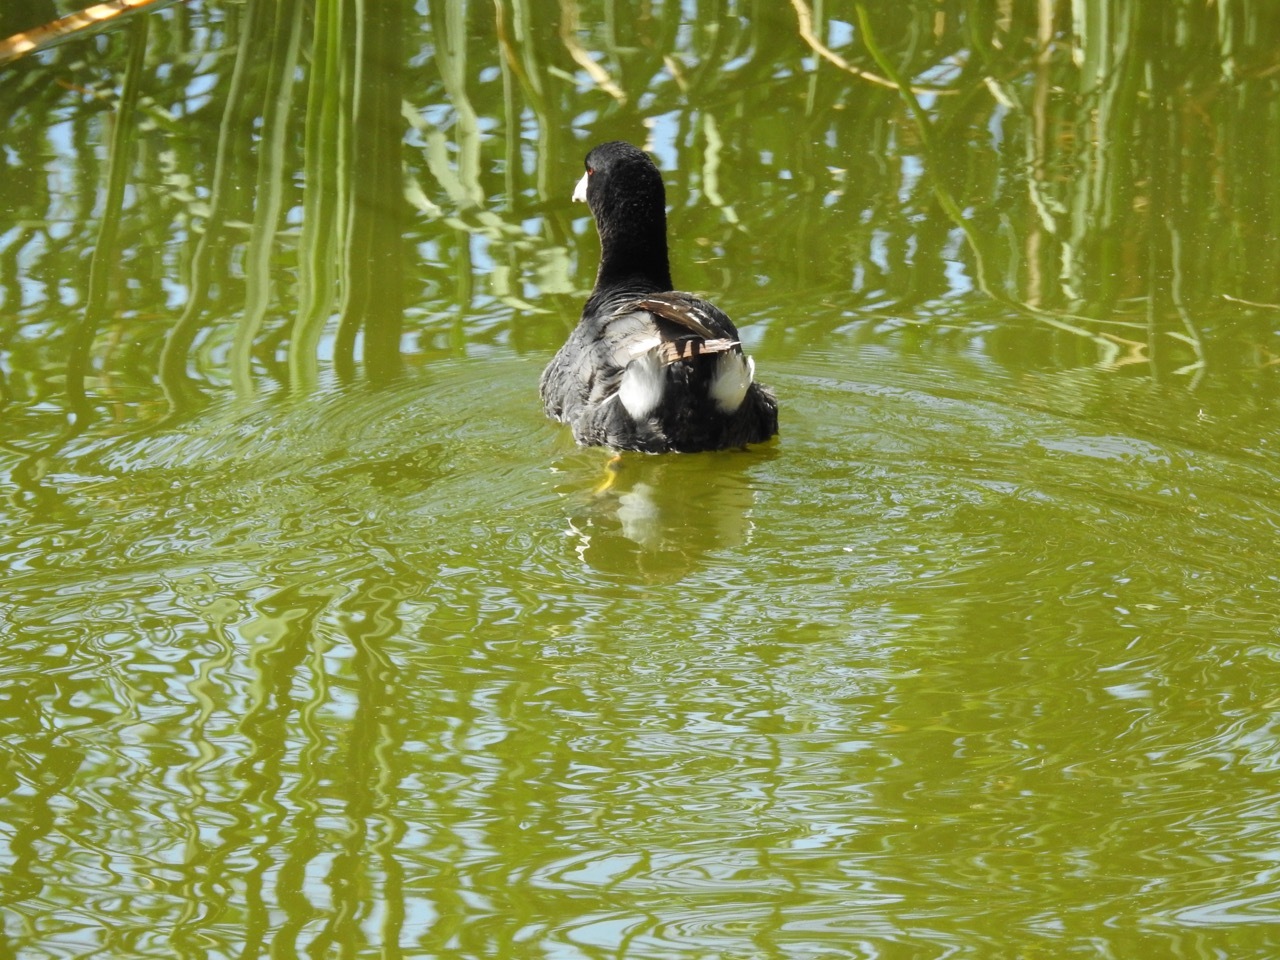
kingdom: Animalia
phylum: Chordata
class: Aves
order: Gruiformes
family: Rallidae
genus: Fulica
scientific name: Fulica americana
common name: American coot
